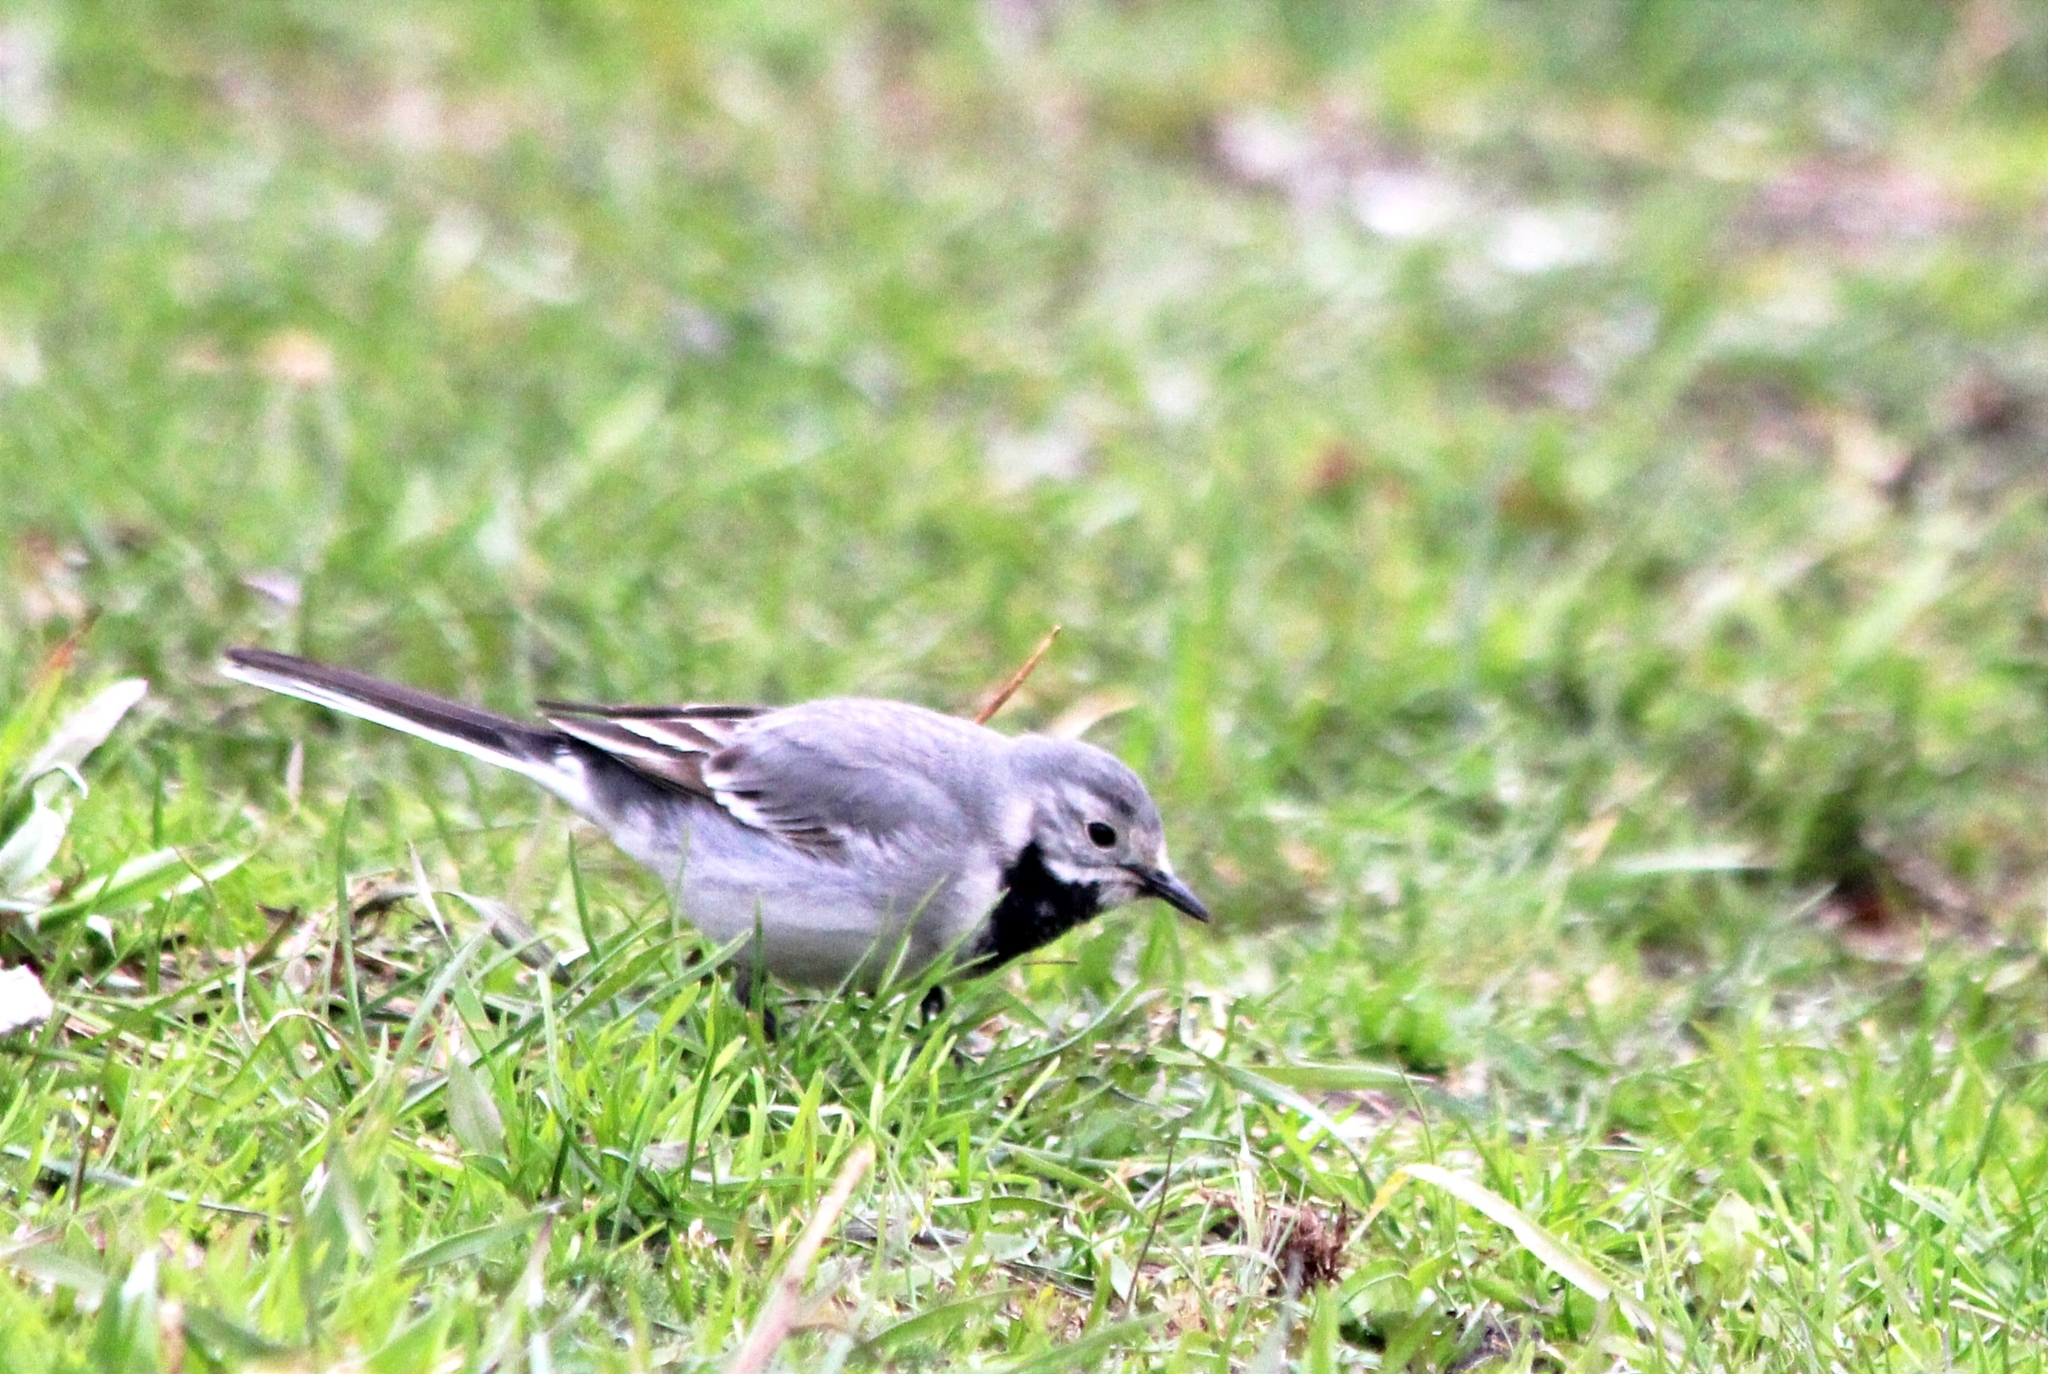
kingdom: Animalia
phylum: Chordata
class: Aves
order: Passeriformes
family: Motacillidae
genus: Motacilla
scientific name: Motacilla alba
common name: White wagtail
